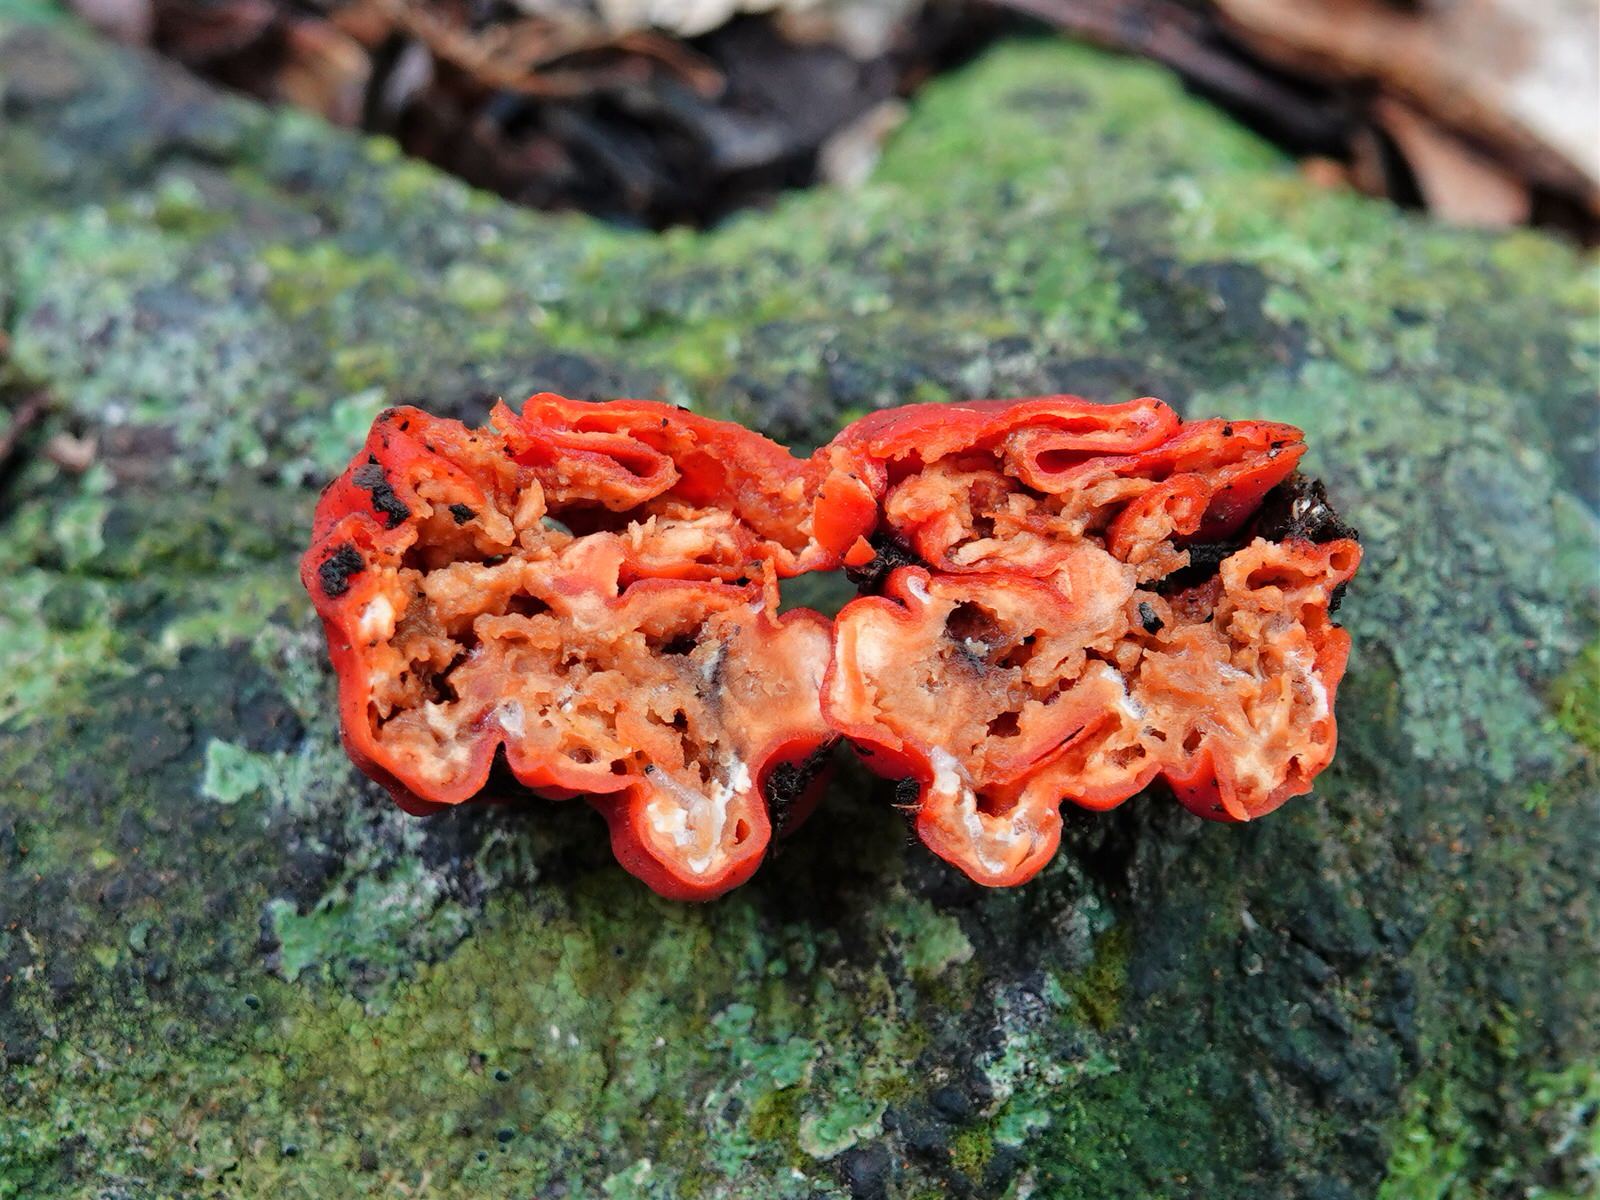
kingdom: Fungi
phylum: Ascomycota
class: Pezizomycetes
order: Pezizales
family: Pyronemataceae
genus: Paurocotylis
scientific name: Paurocotylis pila
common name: Scarlet berry truffle
